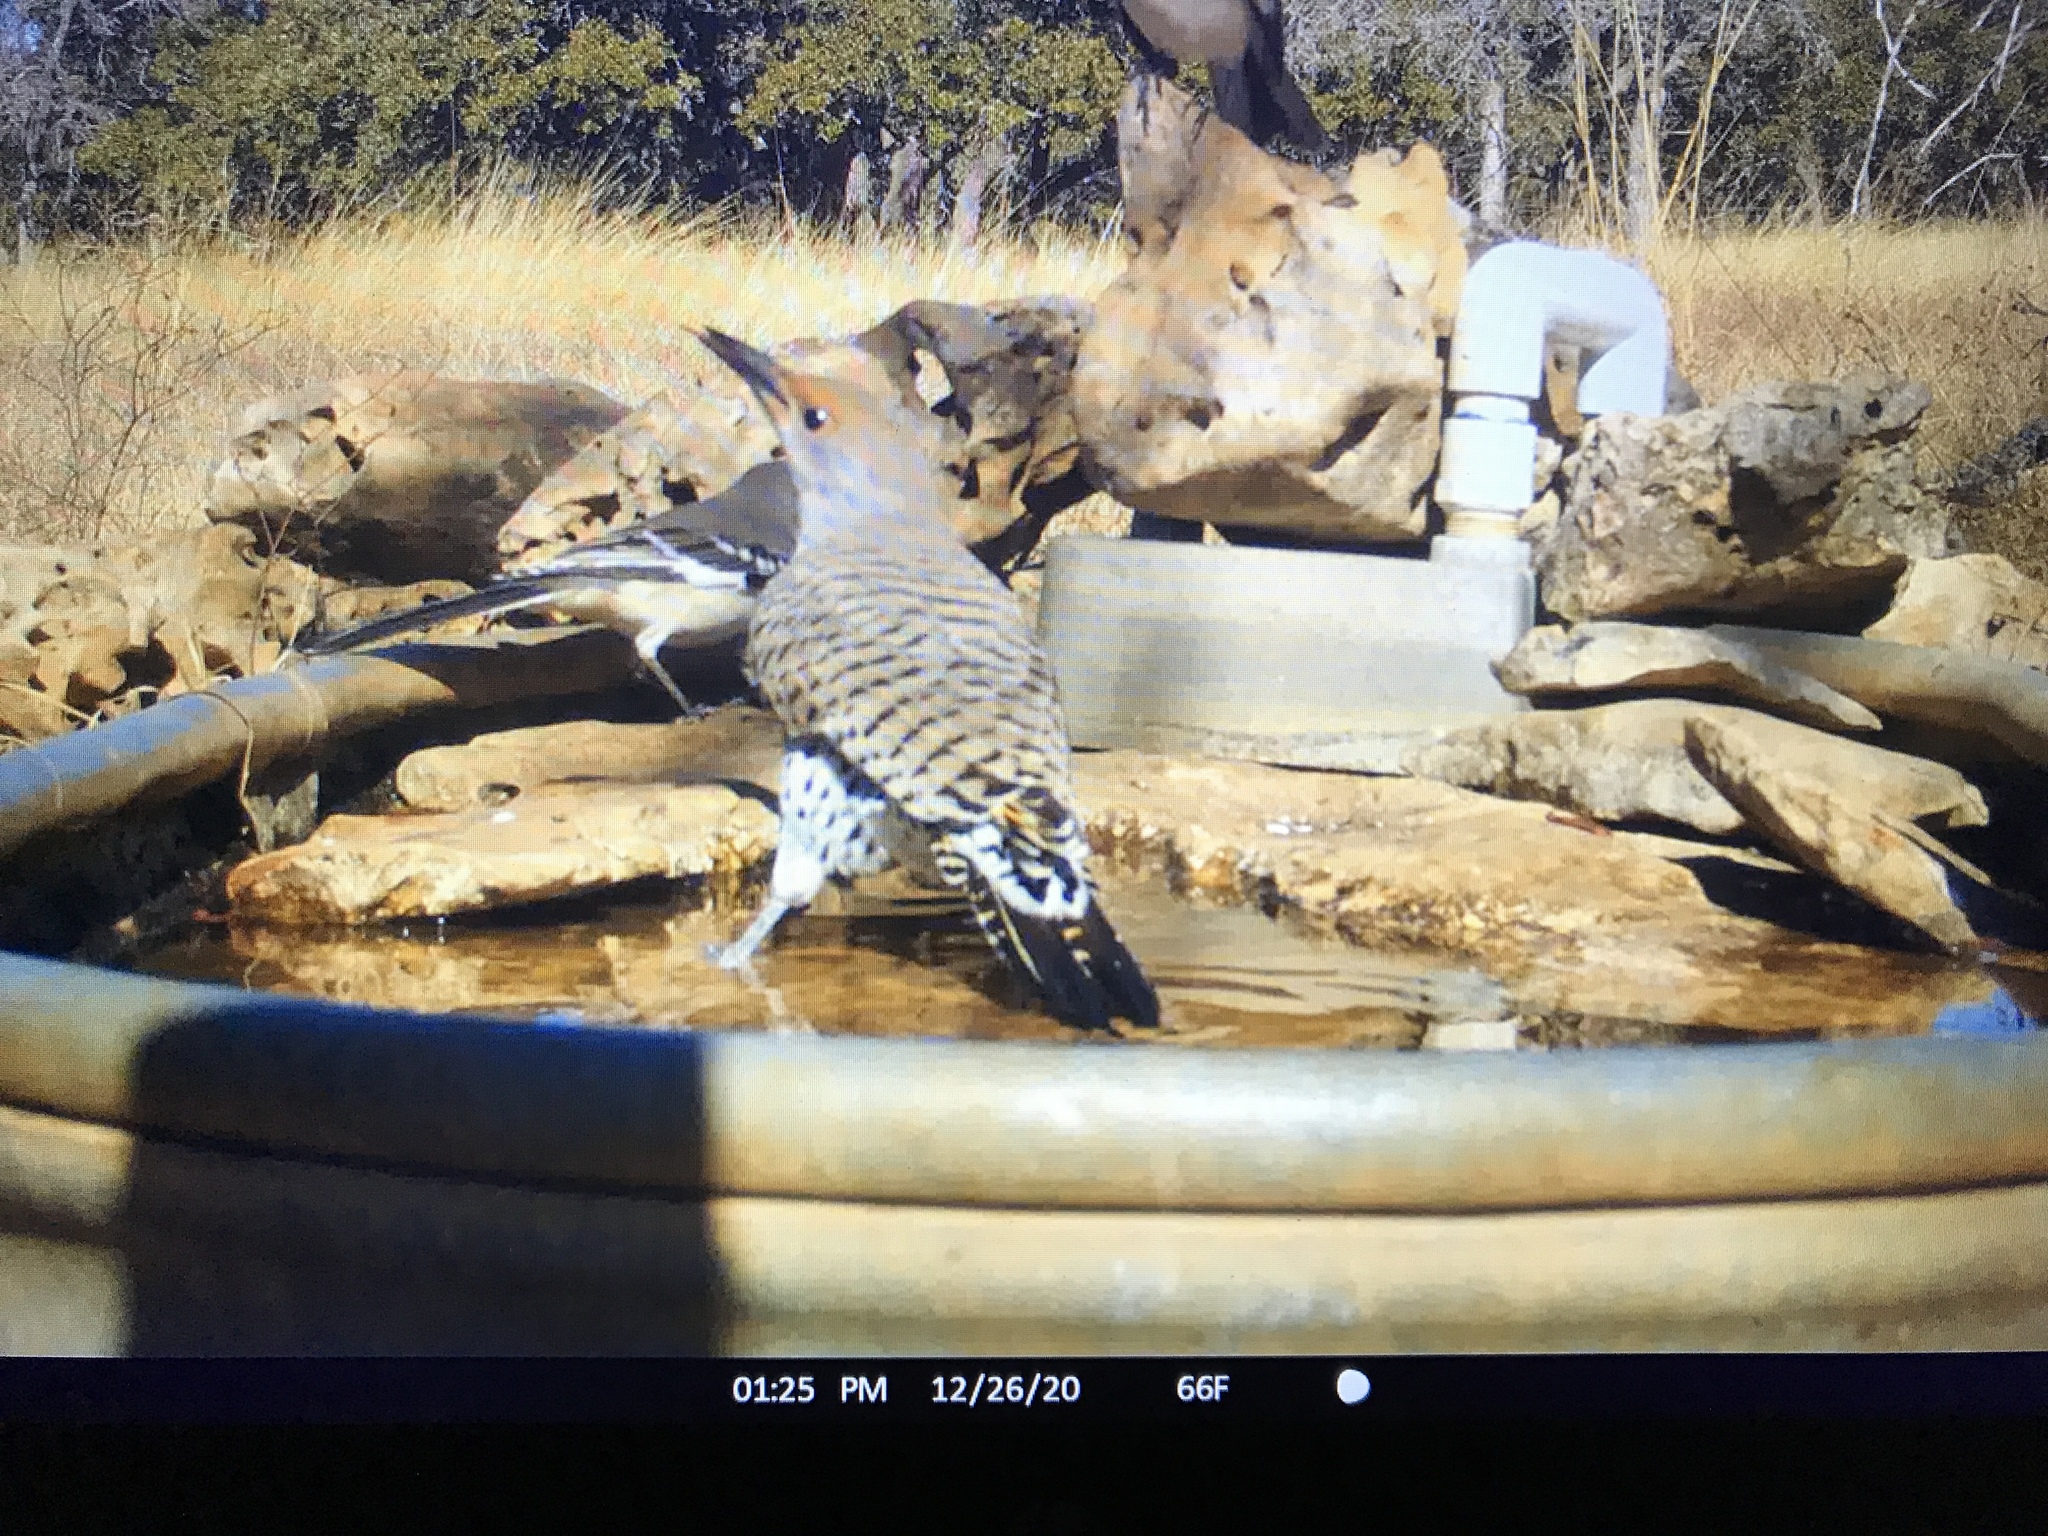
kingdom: Animalia
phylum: Chordata
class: Aves
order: Piciformes
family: Picidae
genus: Colaptes
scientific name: Colaptes auratus
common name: Northern flicker
